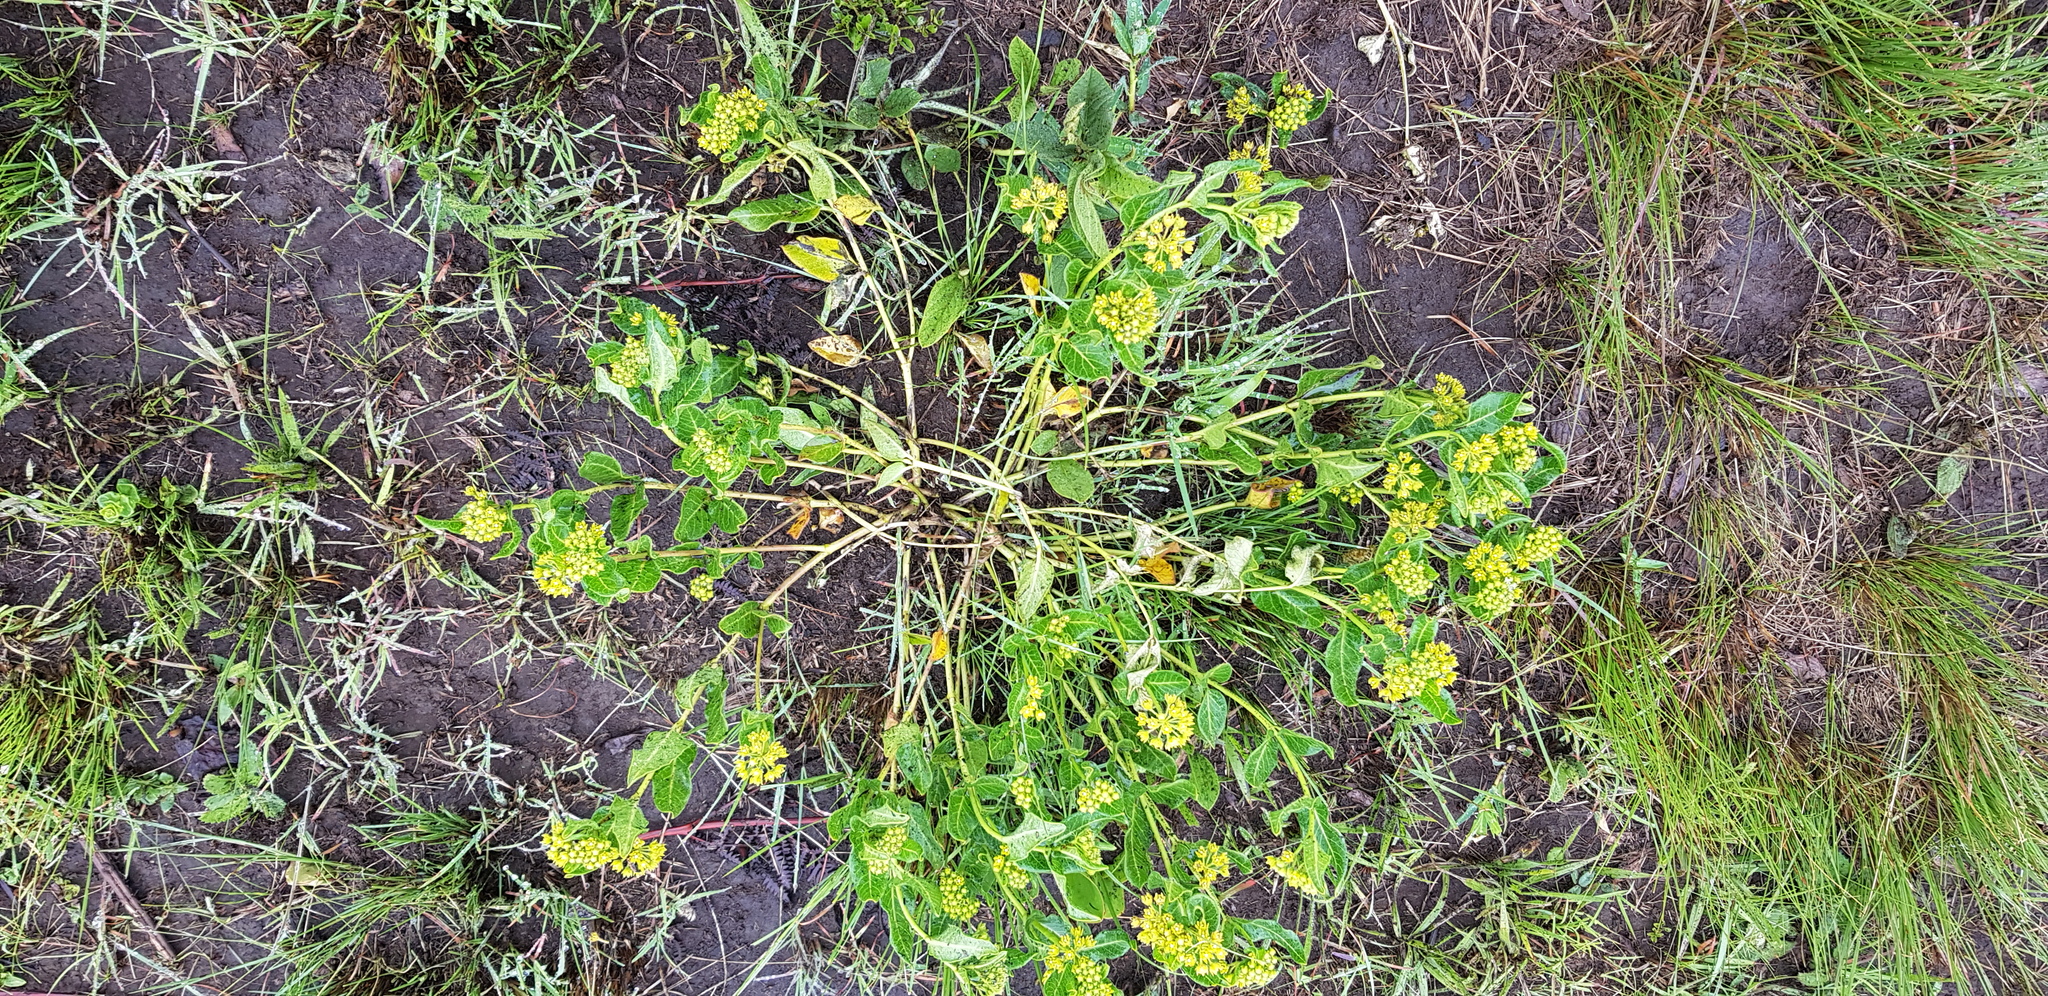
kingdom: Plantae
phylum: Tracheophyta
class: Magnoliopsida
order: Gentianales
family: Apocynaceae
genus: Xysmalobium
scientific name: Xysmalobium tysonianum
